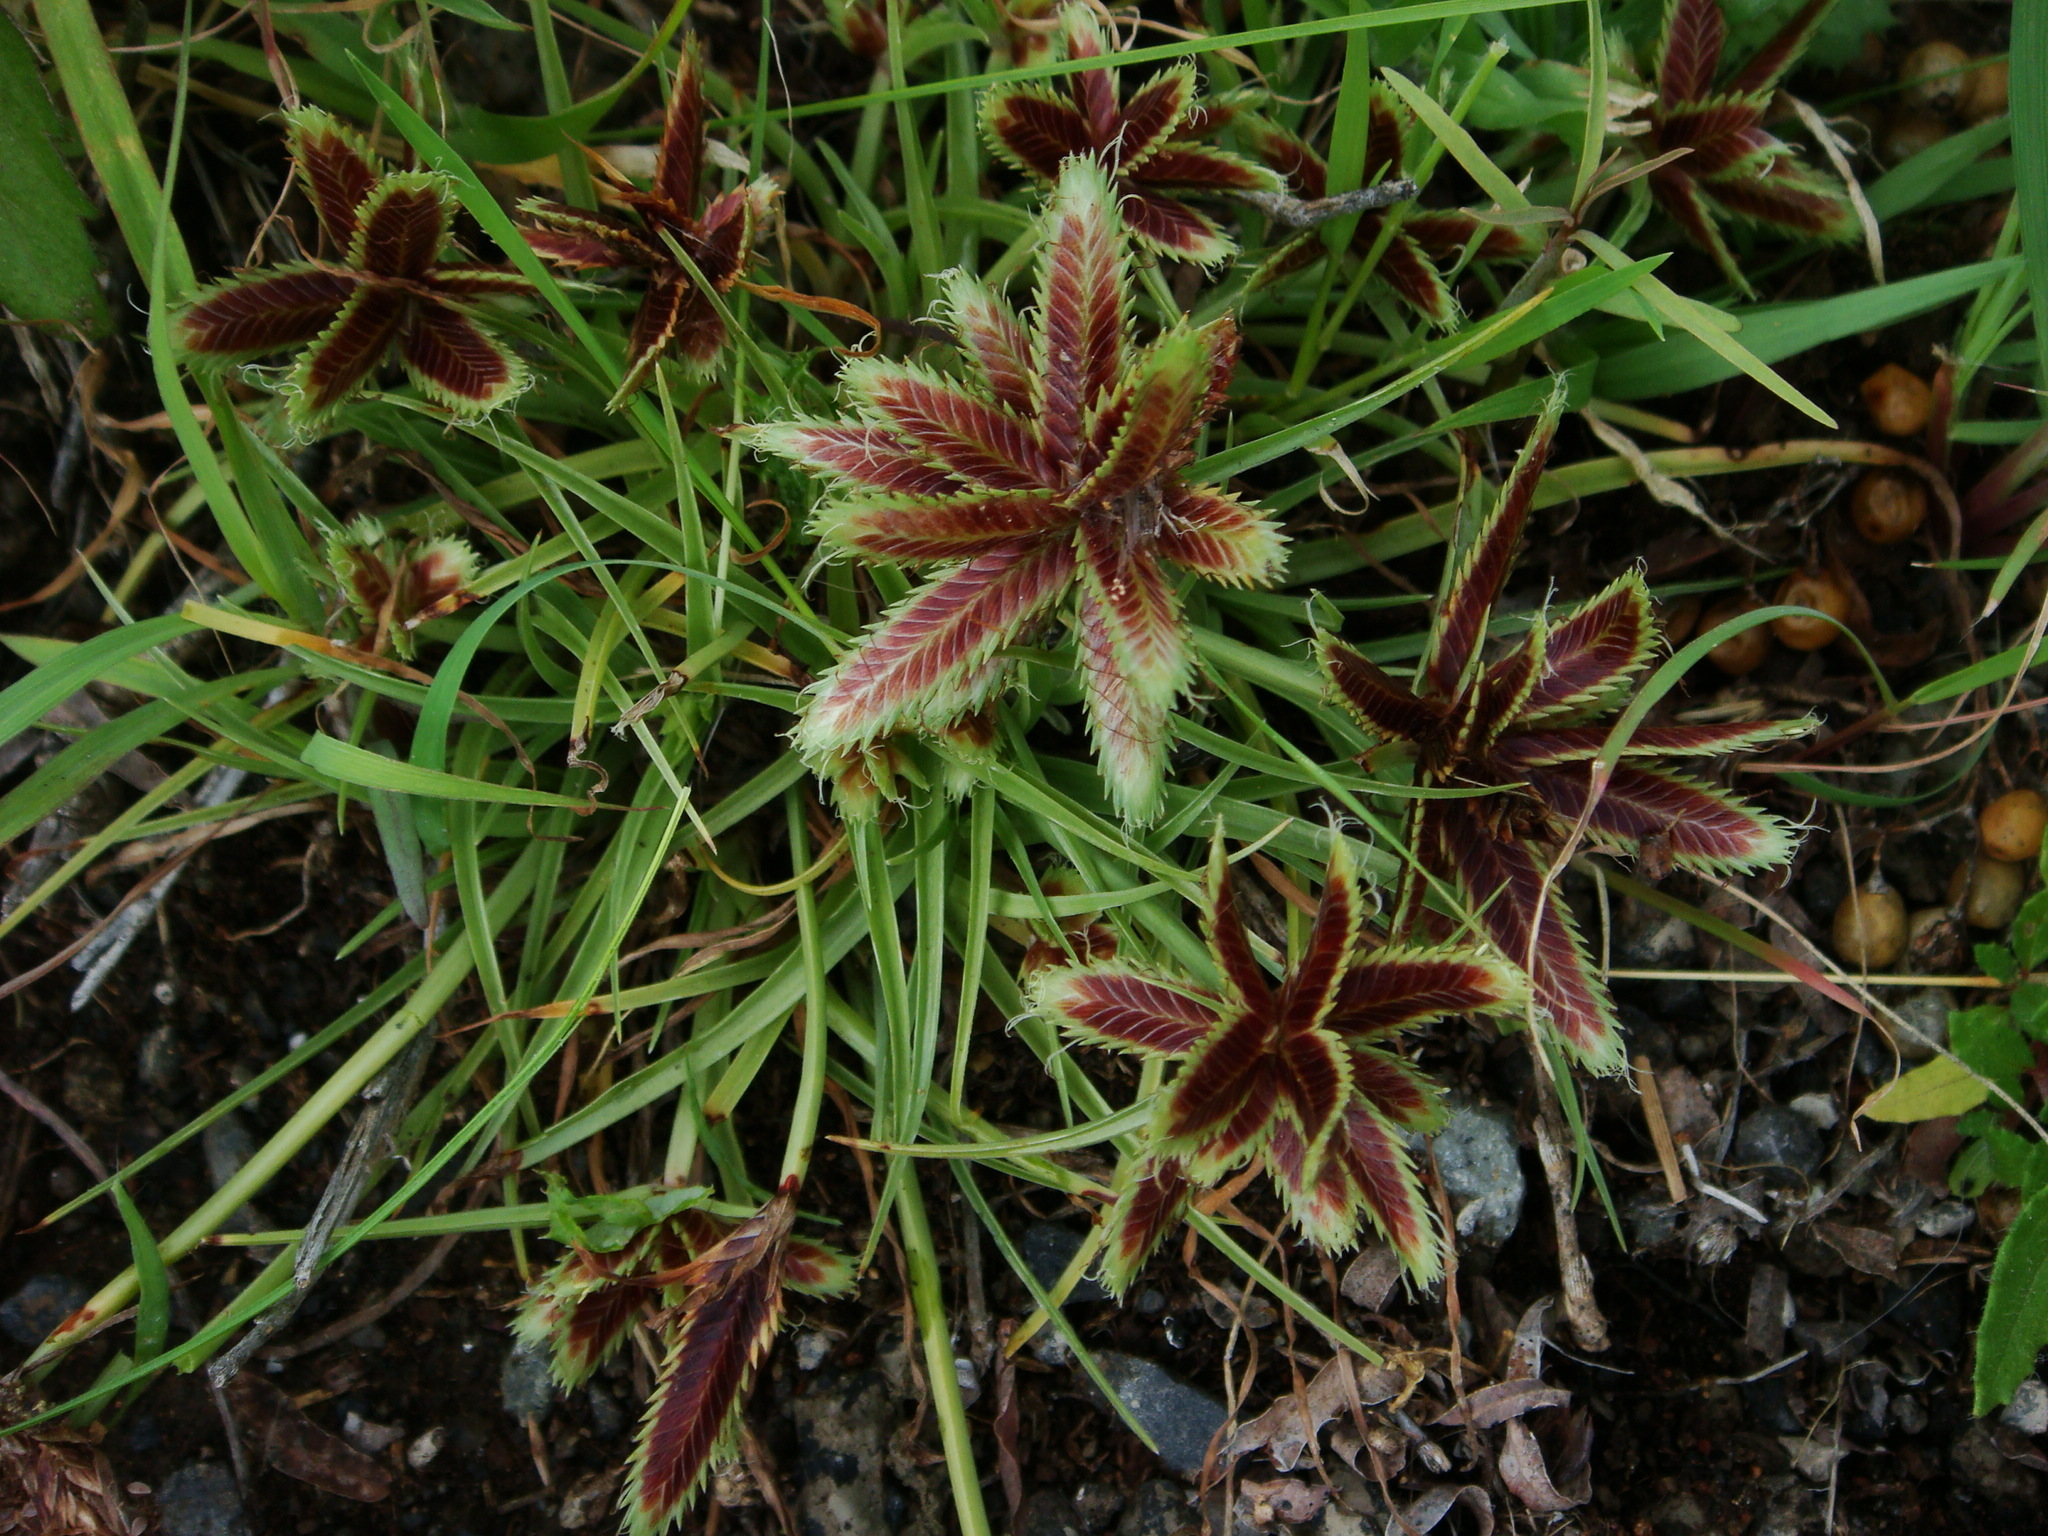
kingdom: Plantae
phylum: Tracheophyta
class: Liliopsida
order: Poales
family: Cyperaceae
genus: Cyperus
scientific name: Cyperus rubicundus
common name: Coco-grass
